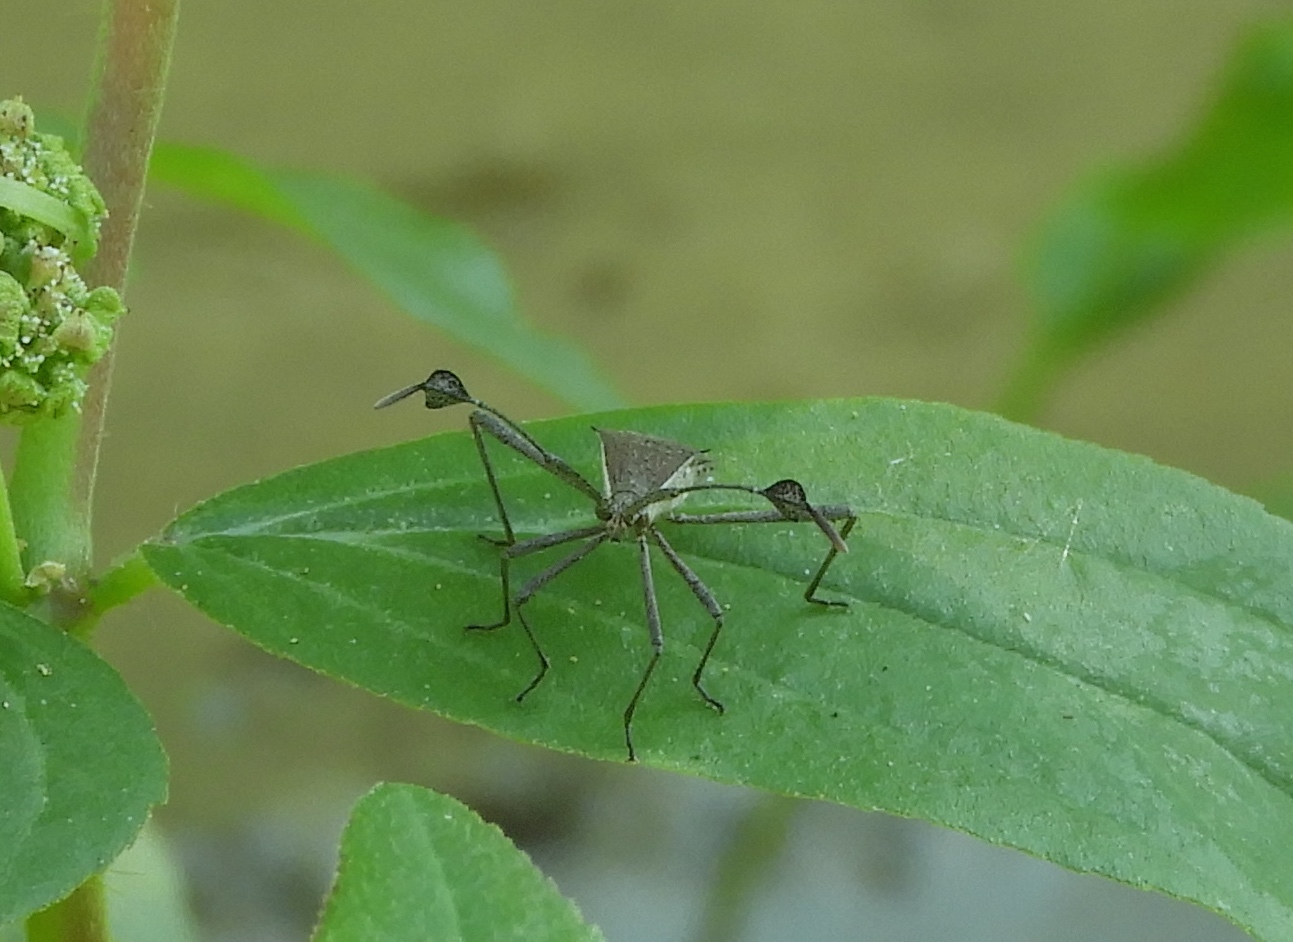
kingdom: Animalia
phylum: Arthropoda
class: Insecta
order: Hemiptera
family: Coreidae
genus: Chariesterus
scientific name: Chariesterus
